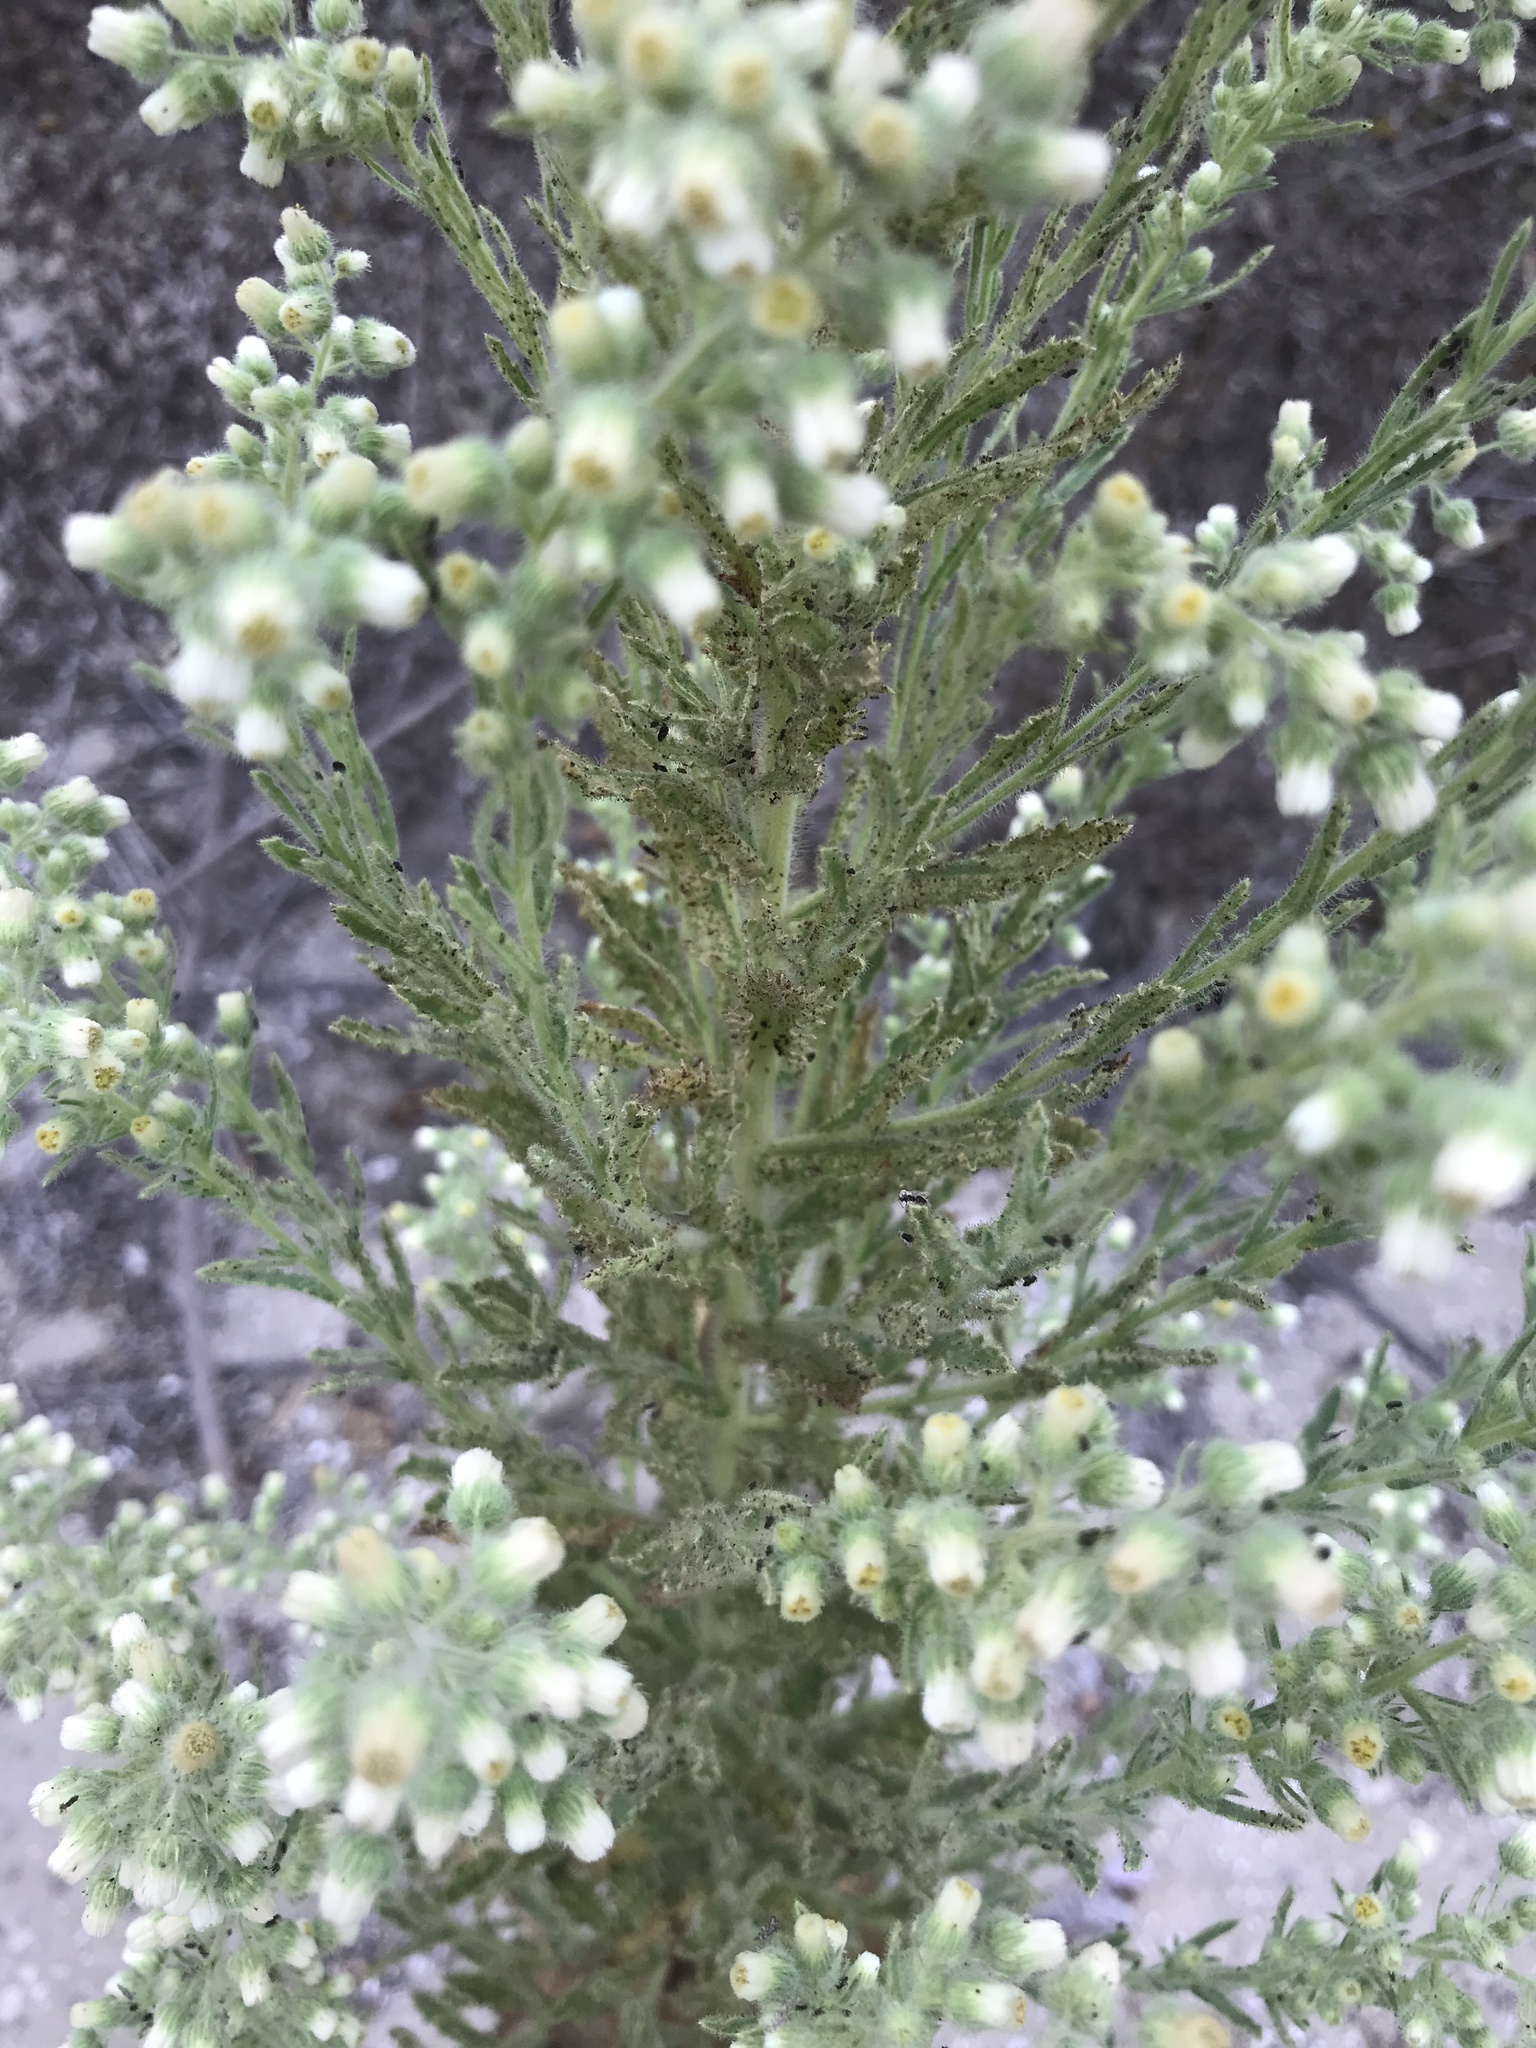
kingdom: Plantae
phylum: Tracheophyta
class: Magnoliopsida
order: Asterales
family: Asteraceae
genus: Laennecia
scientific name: Laennecia coulteri
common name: Coulter's woolwort
